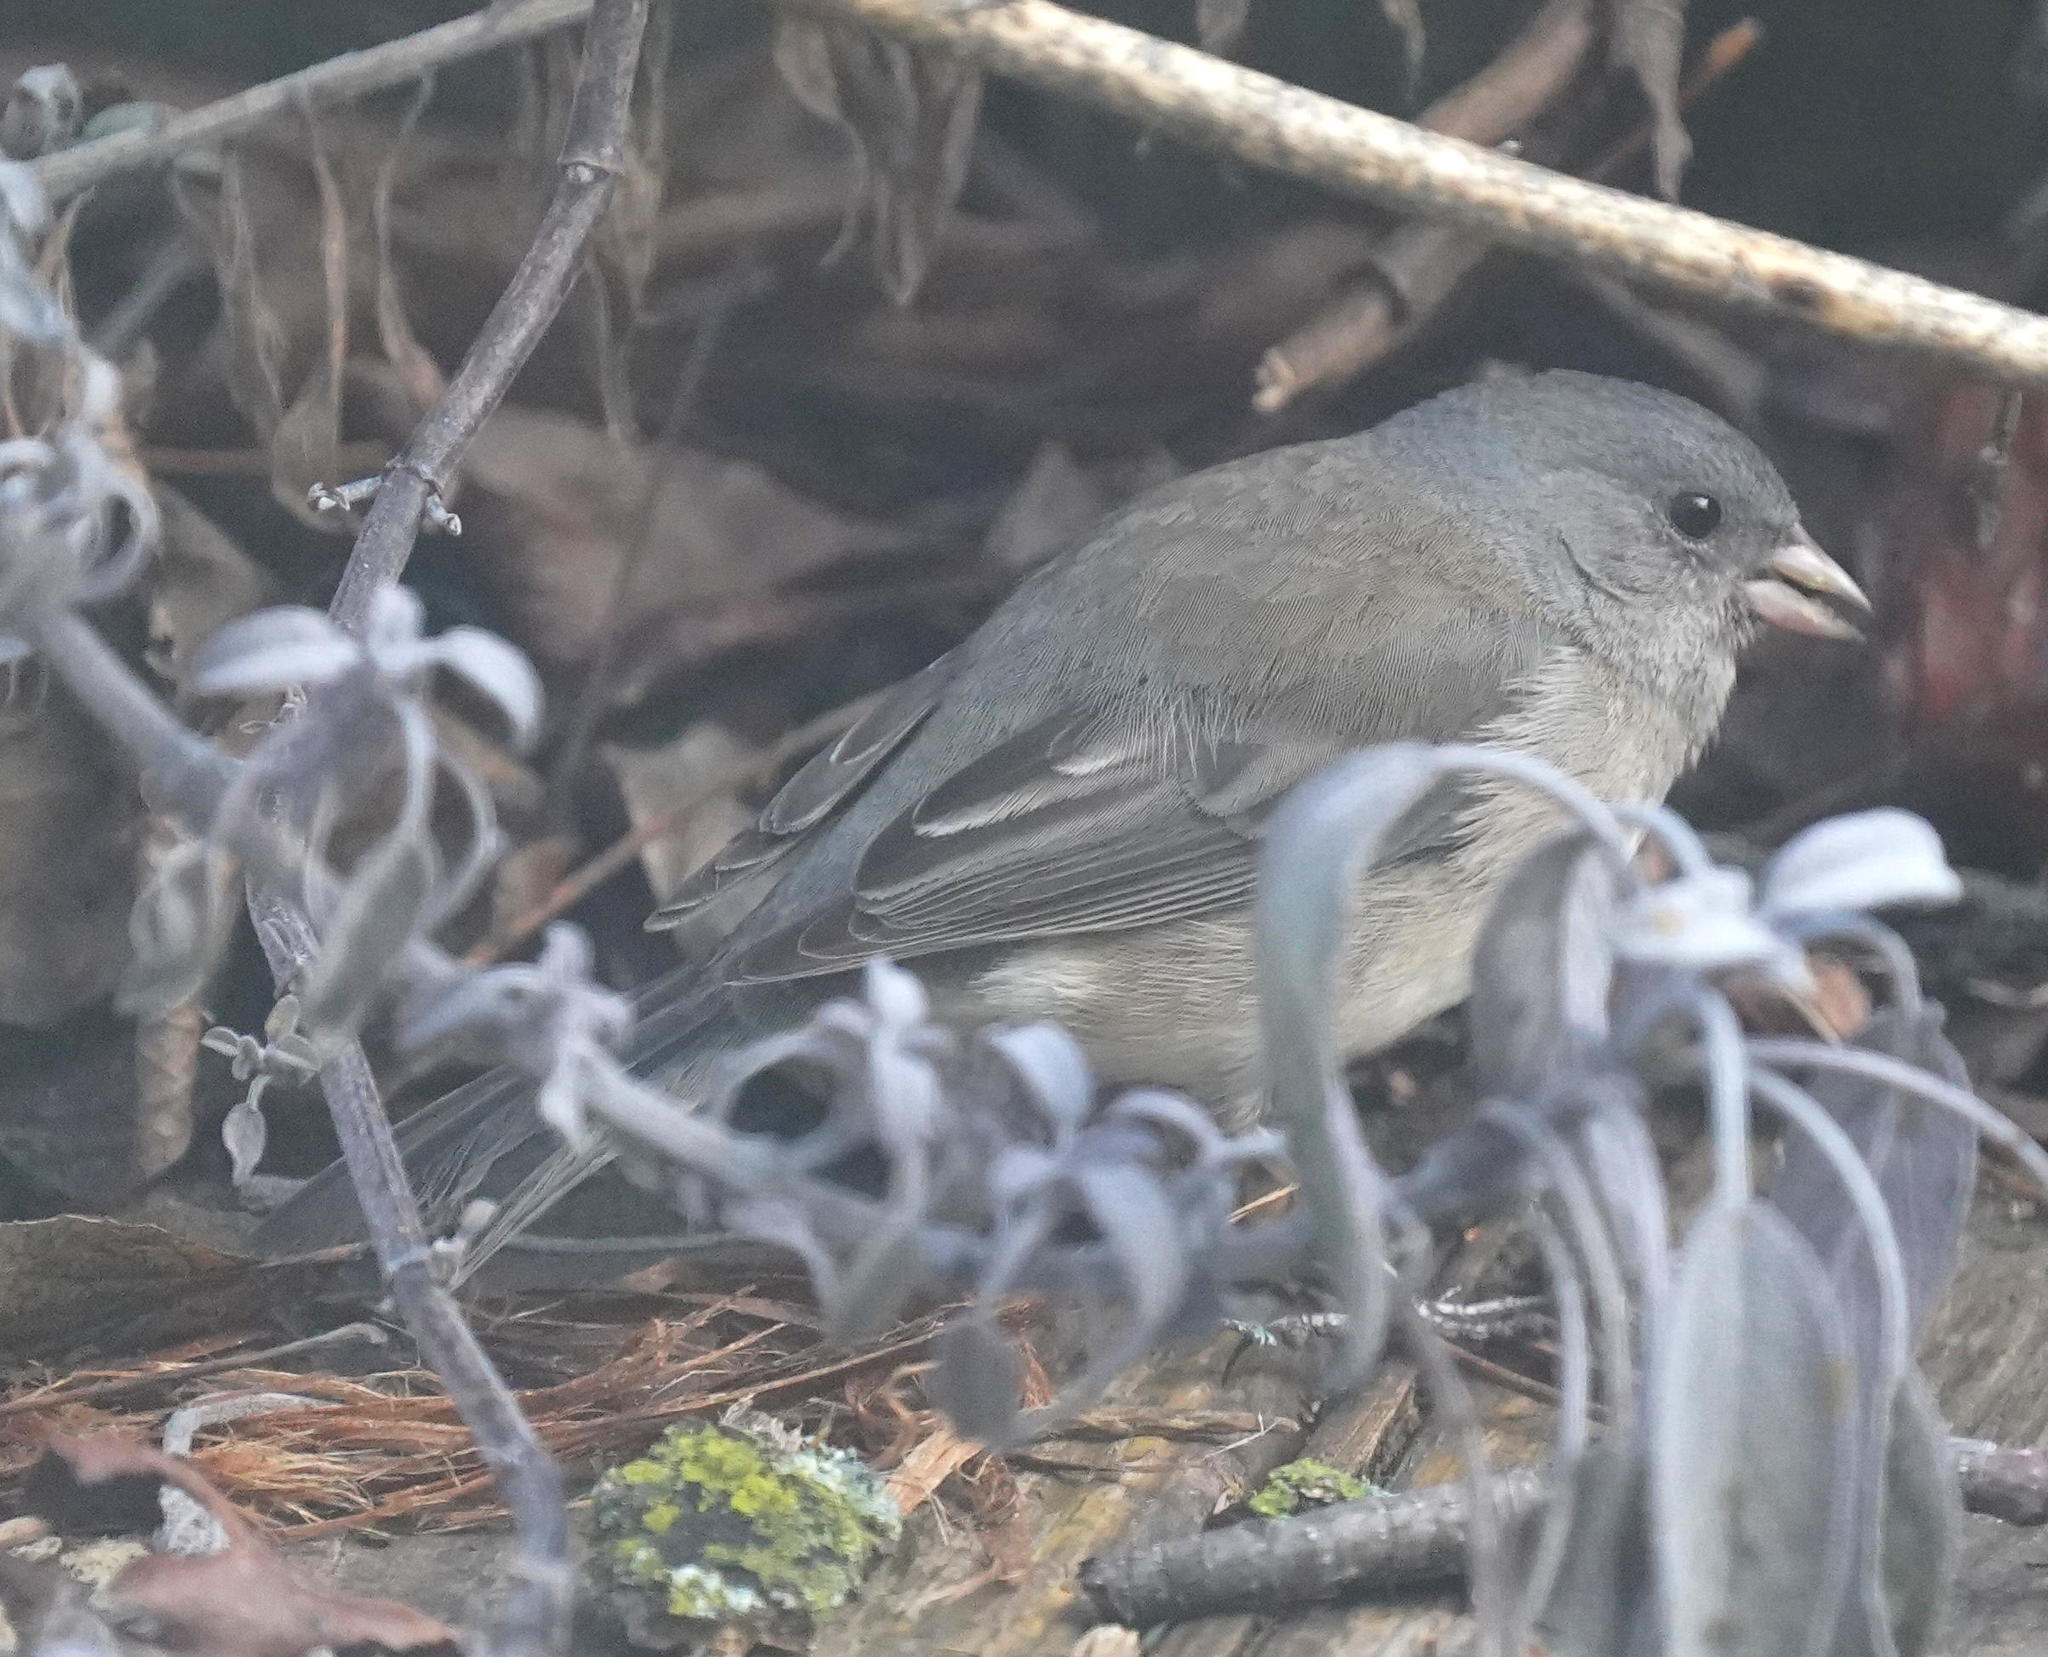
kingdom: Animalia
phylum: Chordata
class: Aves
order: Passeriformes
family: Passerellidae
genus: Junco
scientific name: Junco hyemalis
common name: Dark-eyed junco
